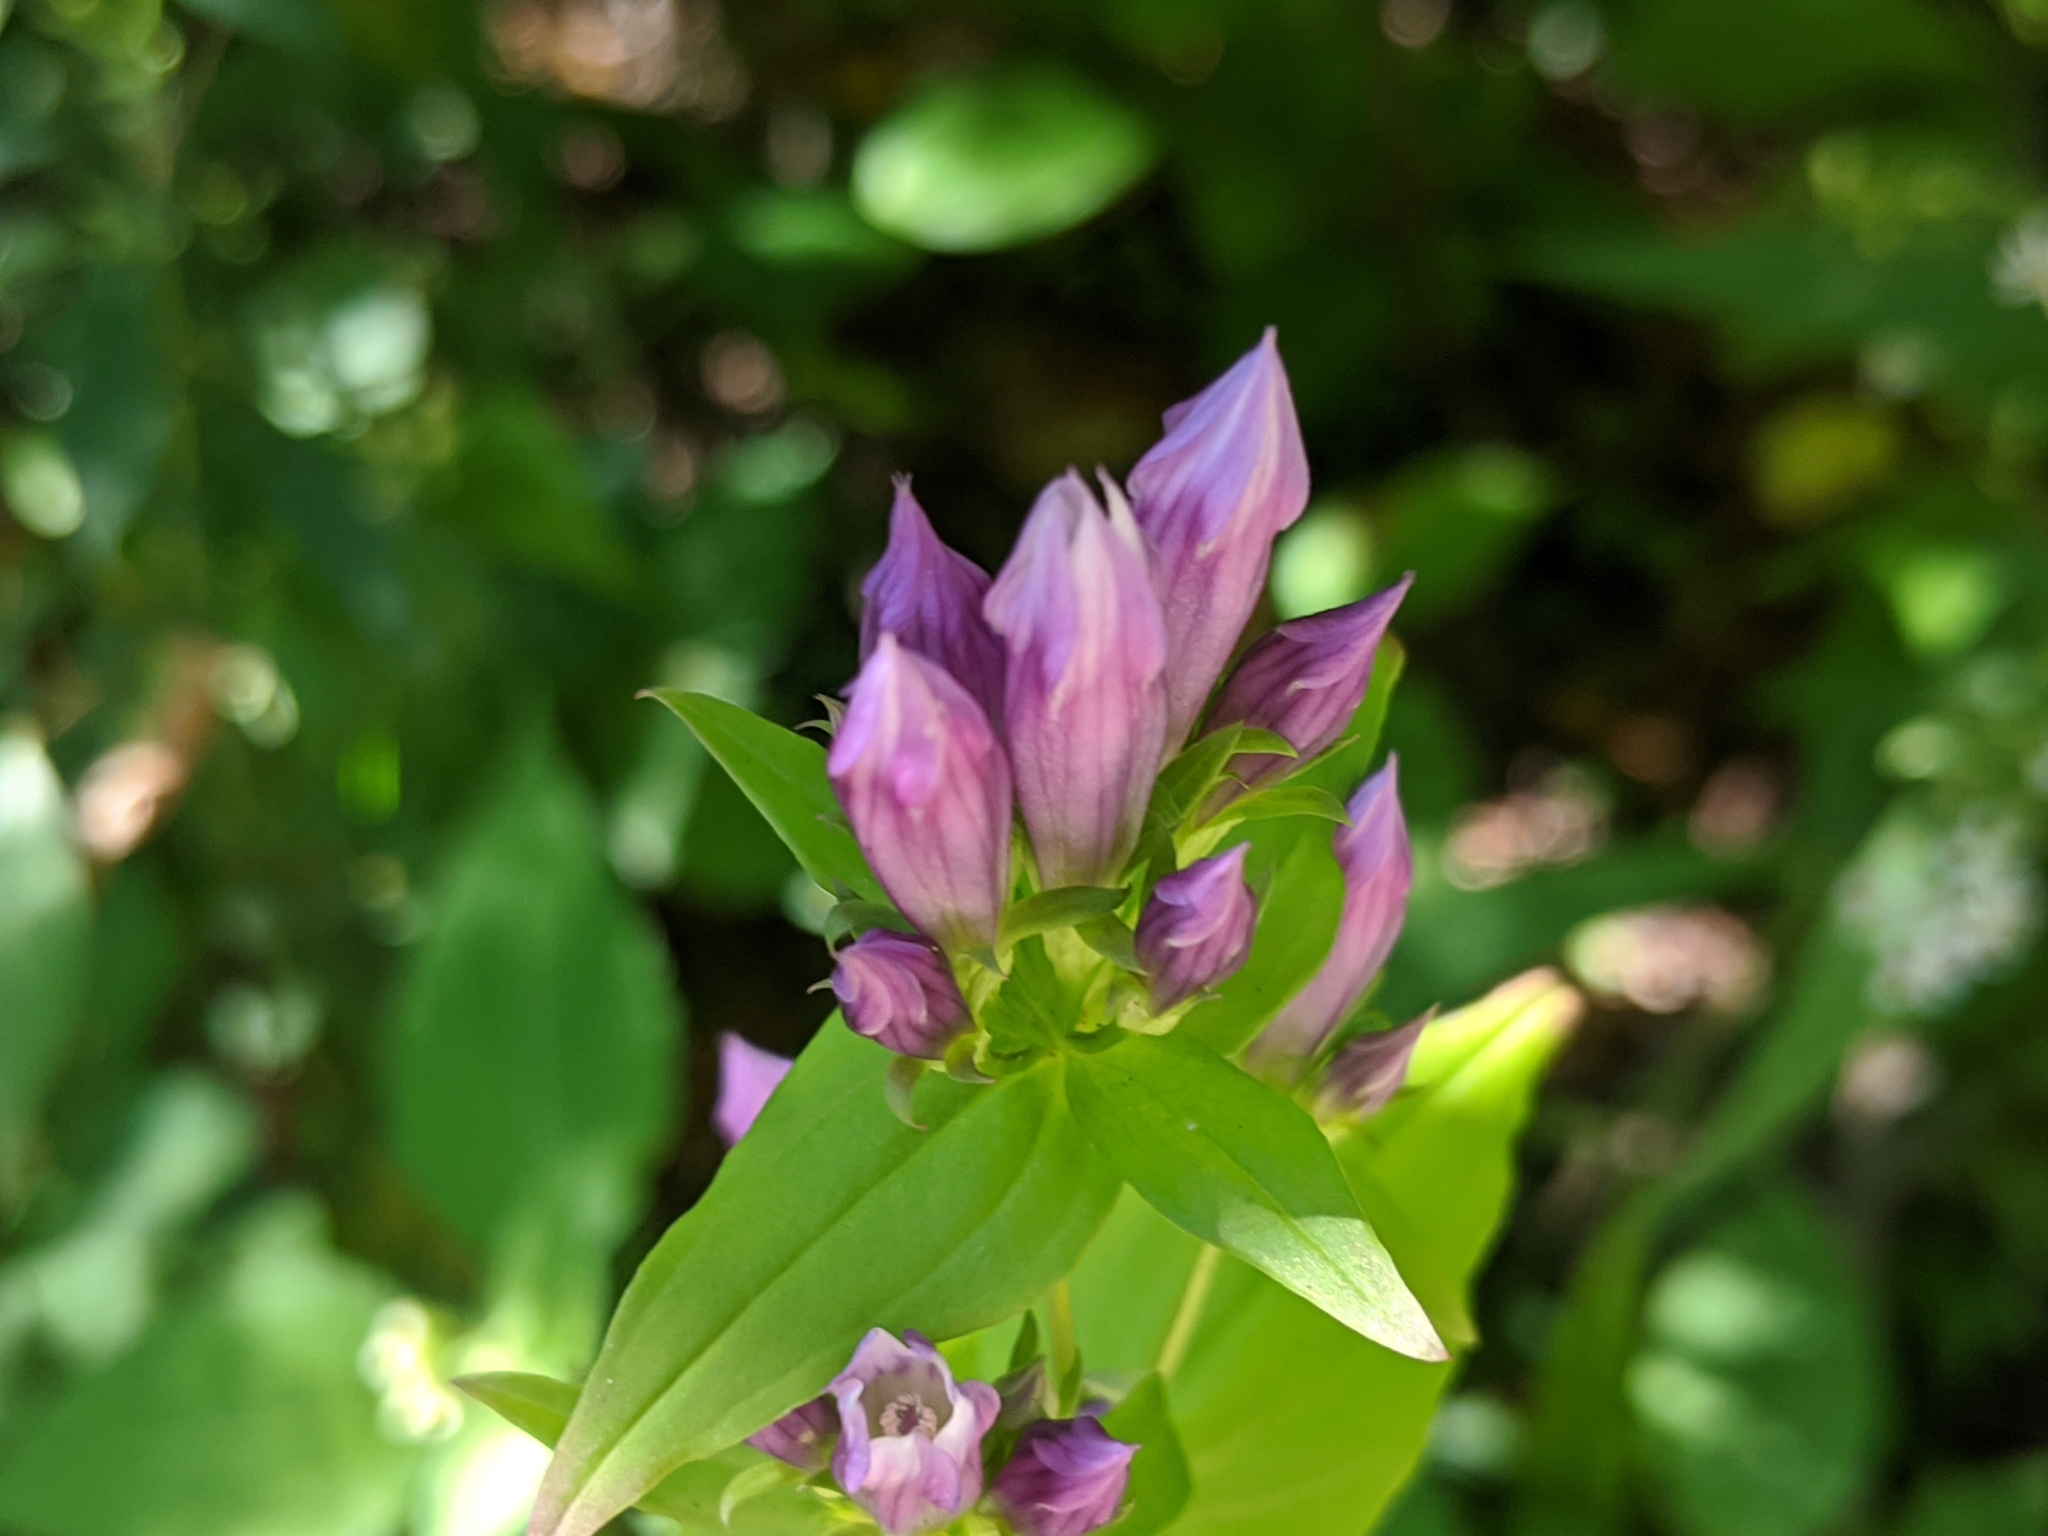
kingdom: Plantae
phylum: Tracheophyta
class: Magnoliopsida
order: Gentianales
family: Gentianaceae
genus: Gentianella
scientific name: Gentianella quinquefolia
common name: Agueweed
